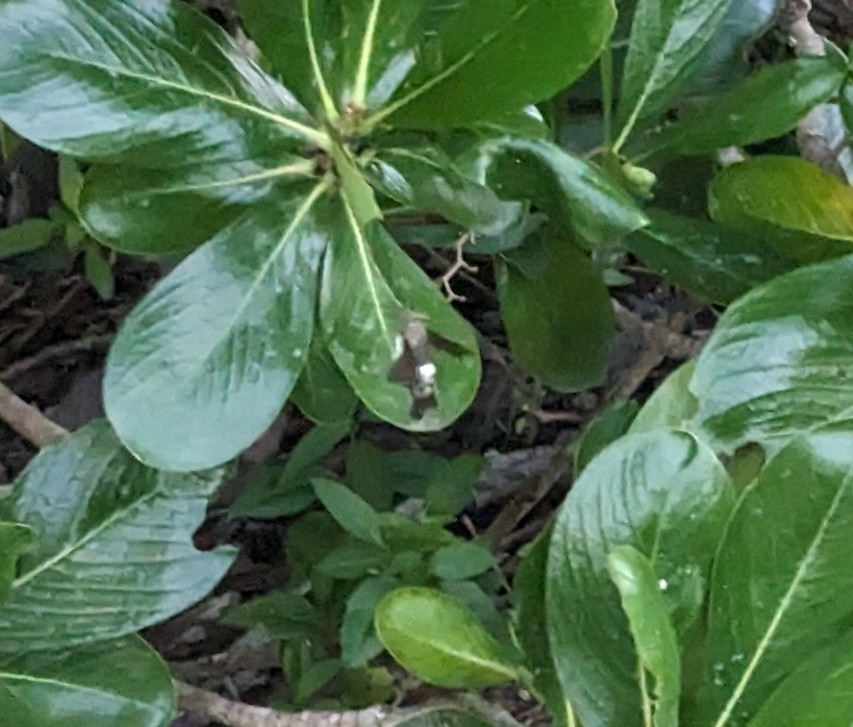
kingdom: Animalia
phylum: Arthropoda
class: Insecta
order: Lepidoptera
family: Sphingidae
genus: Aellopos
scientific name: Aellopos tantalus
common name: Tantalus sphinx
